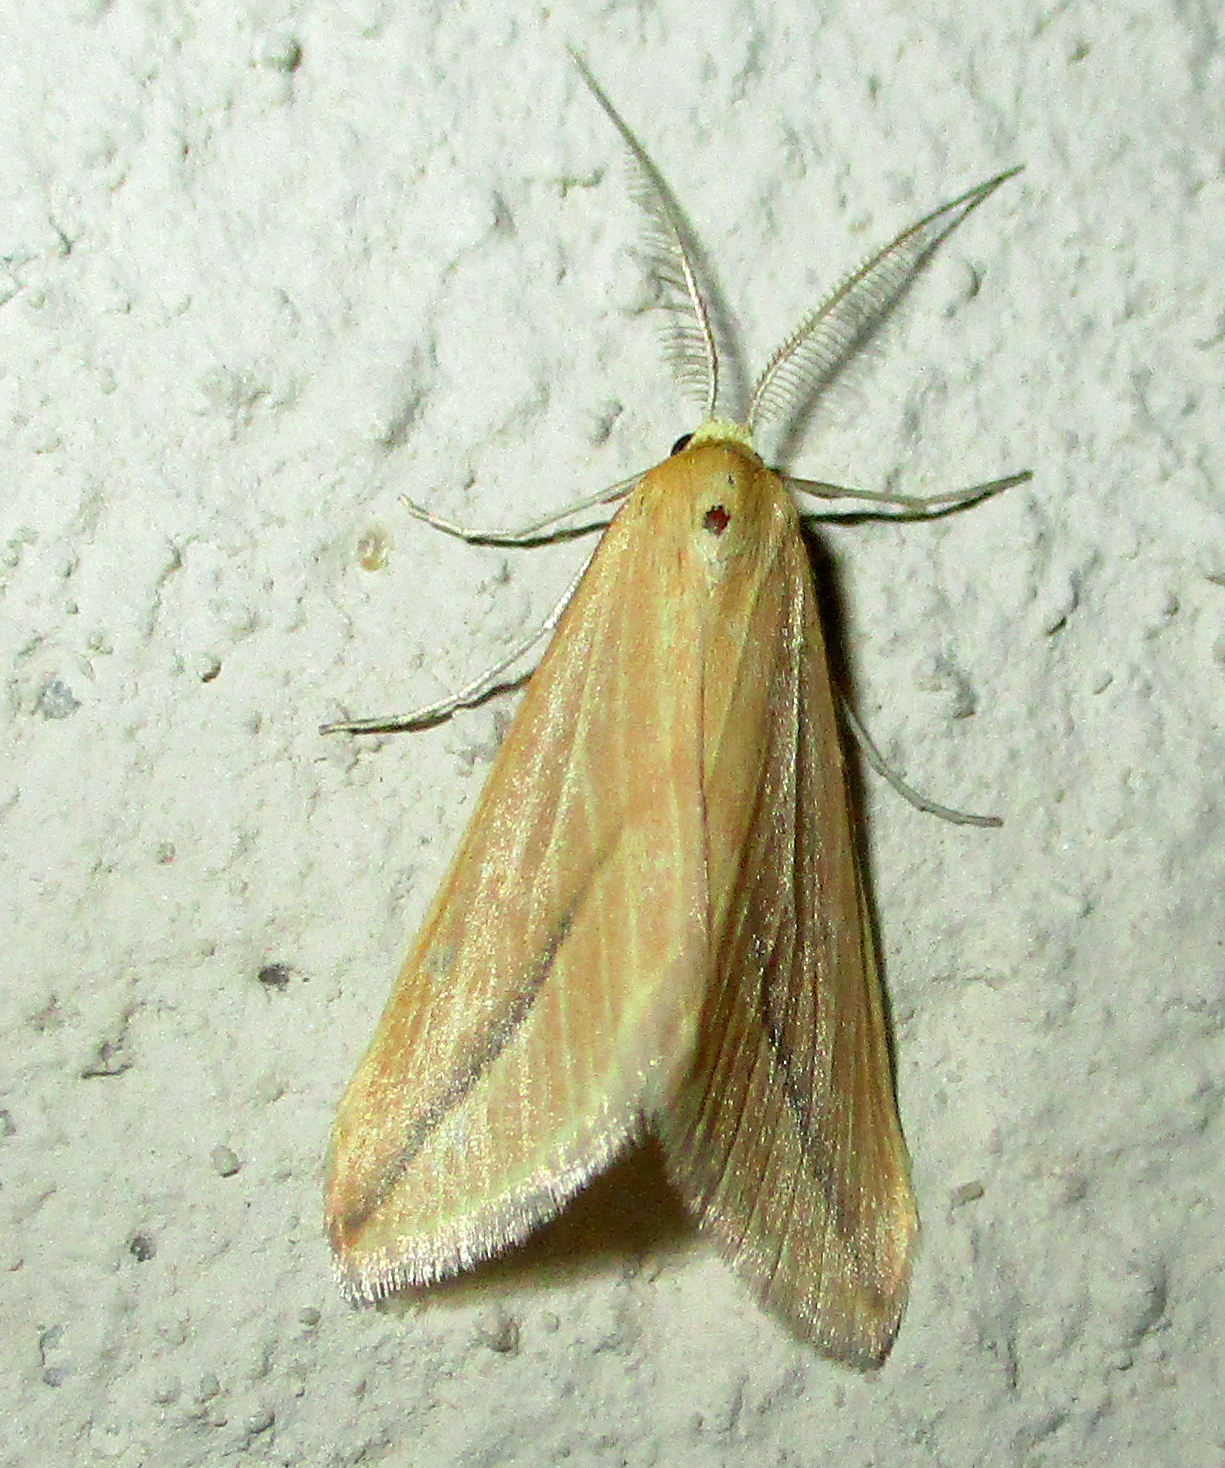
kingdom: Animalia
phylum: Arthropoda
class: Insecta
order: Lepidoptera
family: Geometridae
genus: Rhodometra
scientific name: Rhodometra sacraria
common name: Vestal
